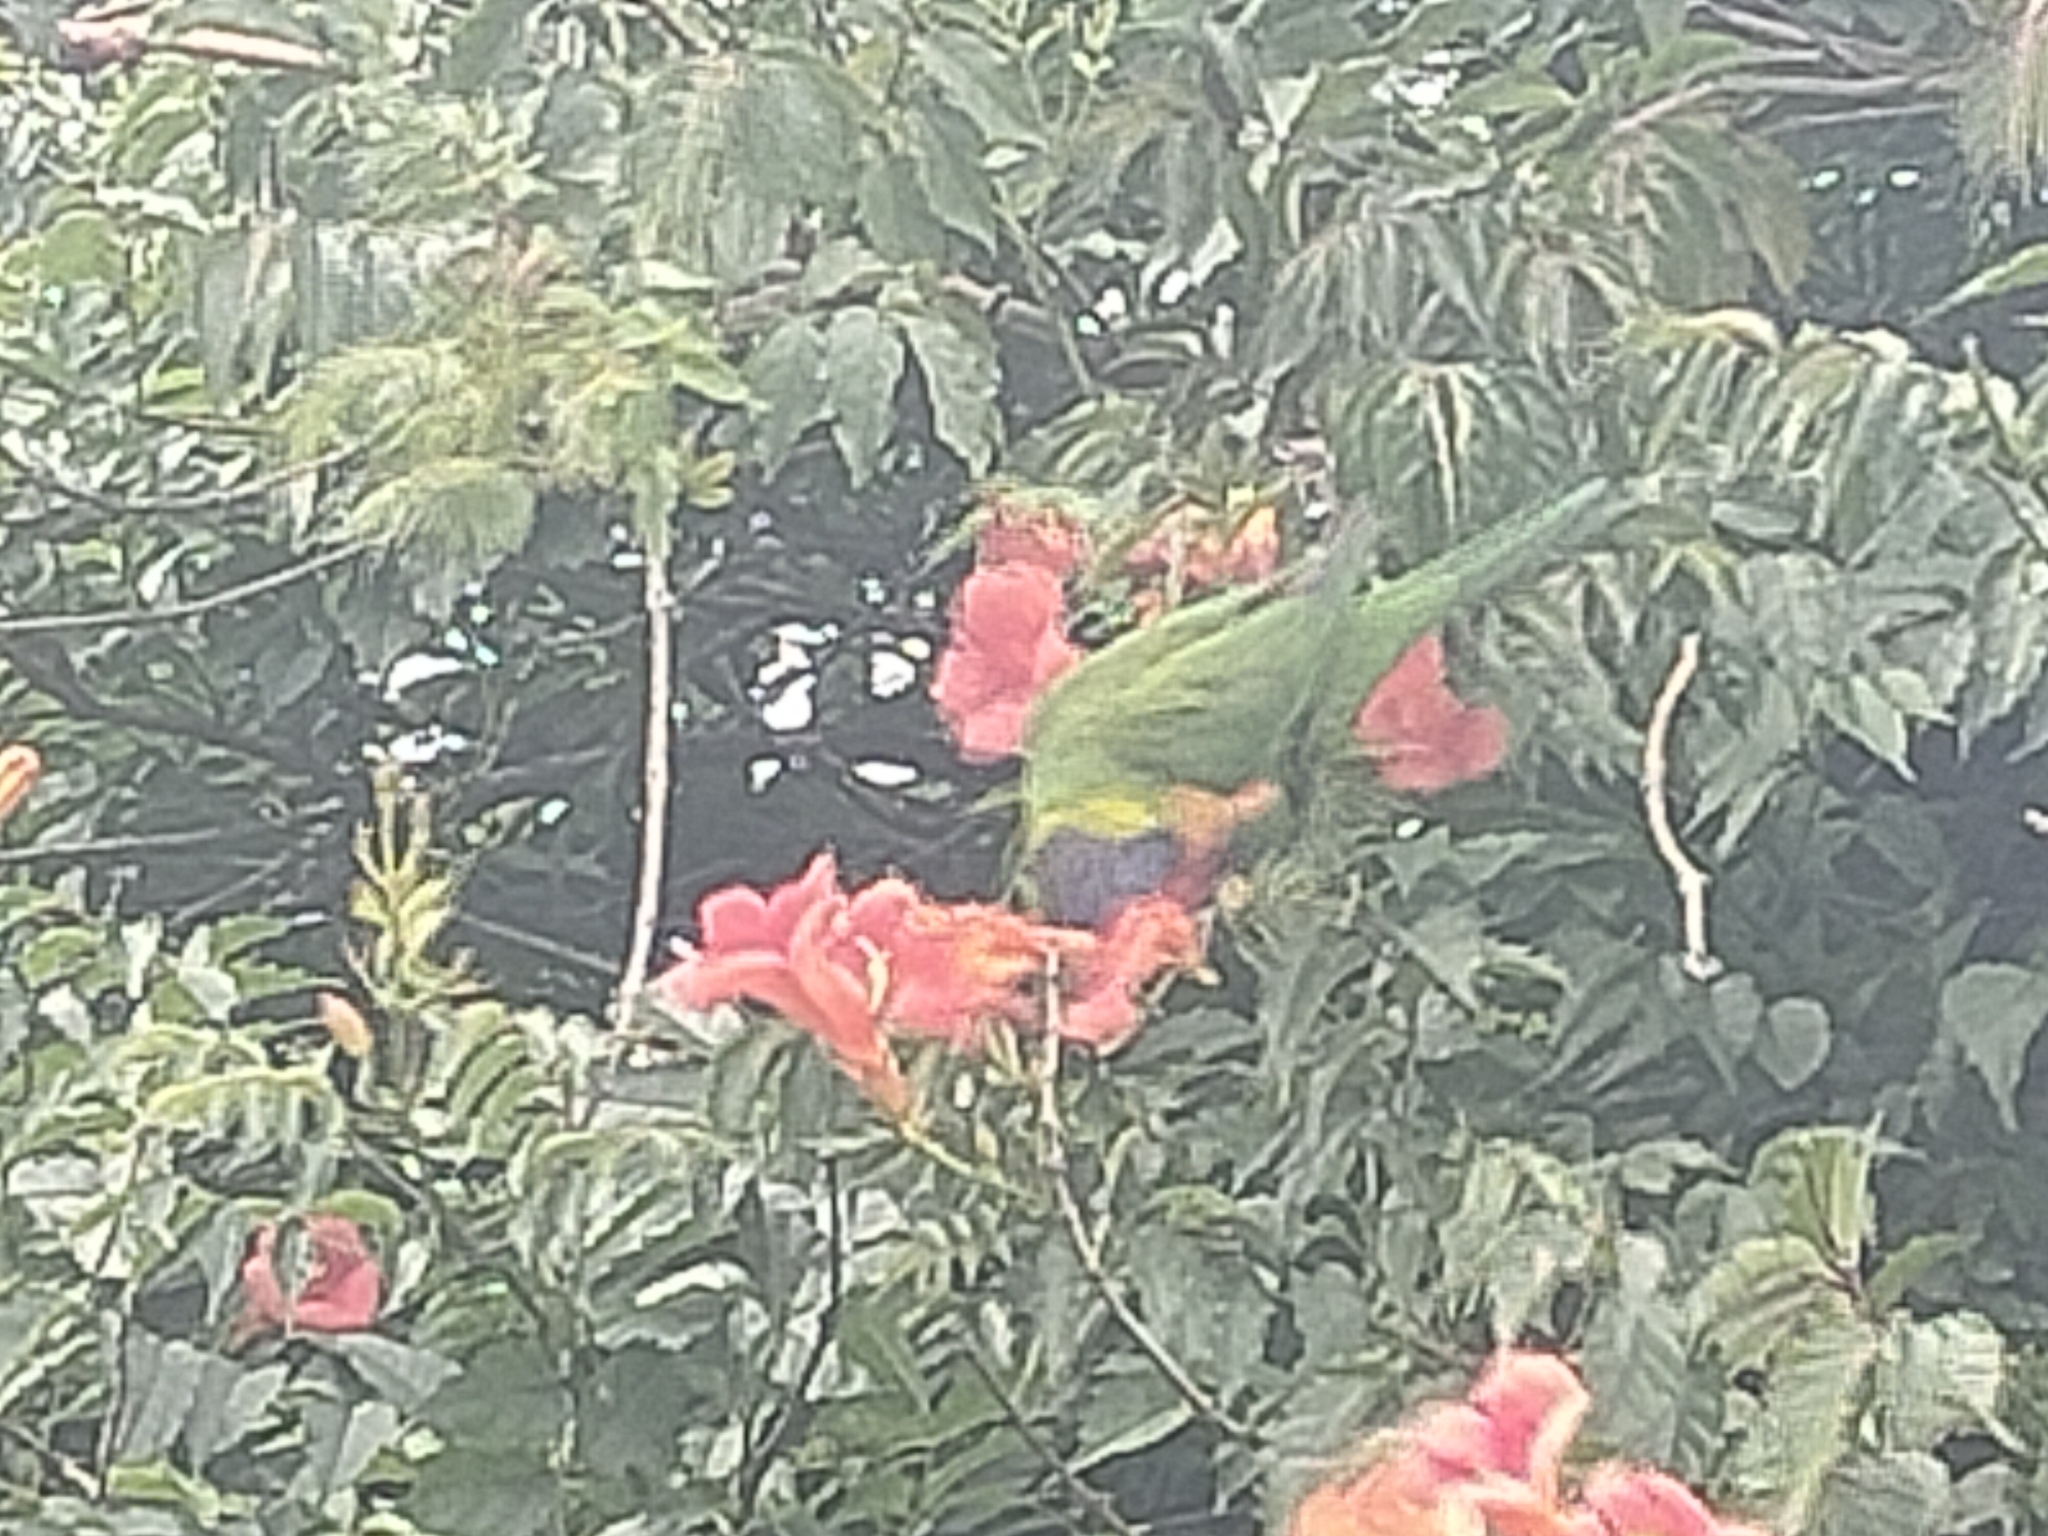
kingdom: Animalia
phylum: Chordata
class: Aves
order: Psittaciformes
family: Psittacidae
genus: Trichoglossus
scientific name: Trichoglossus haematodus
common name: Coconut lorikeet
